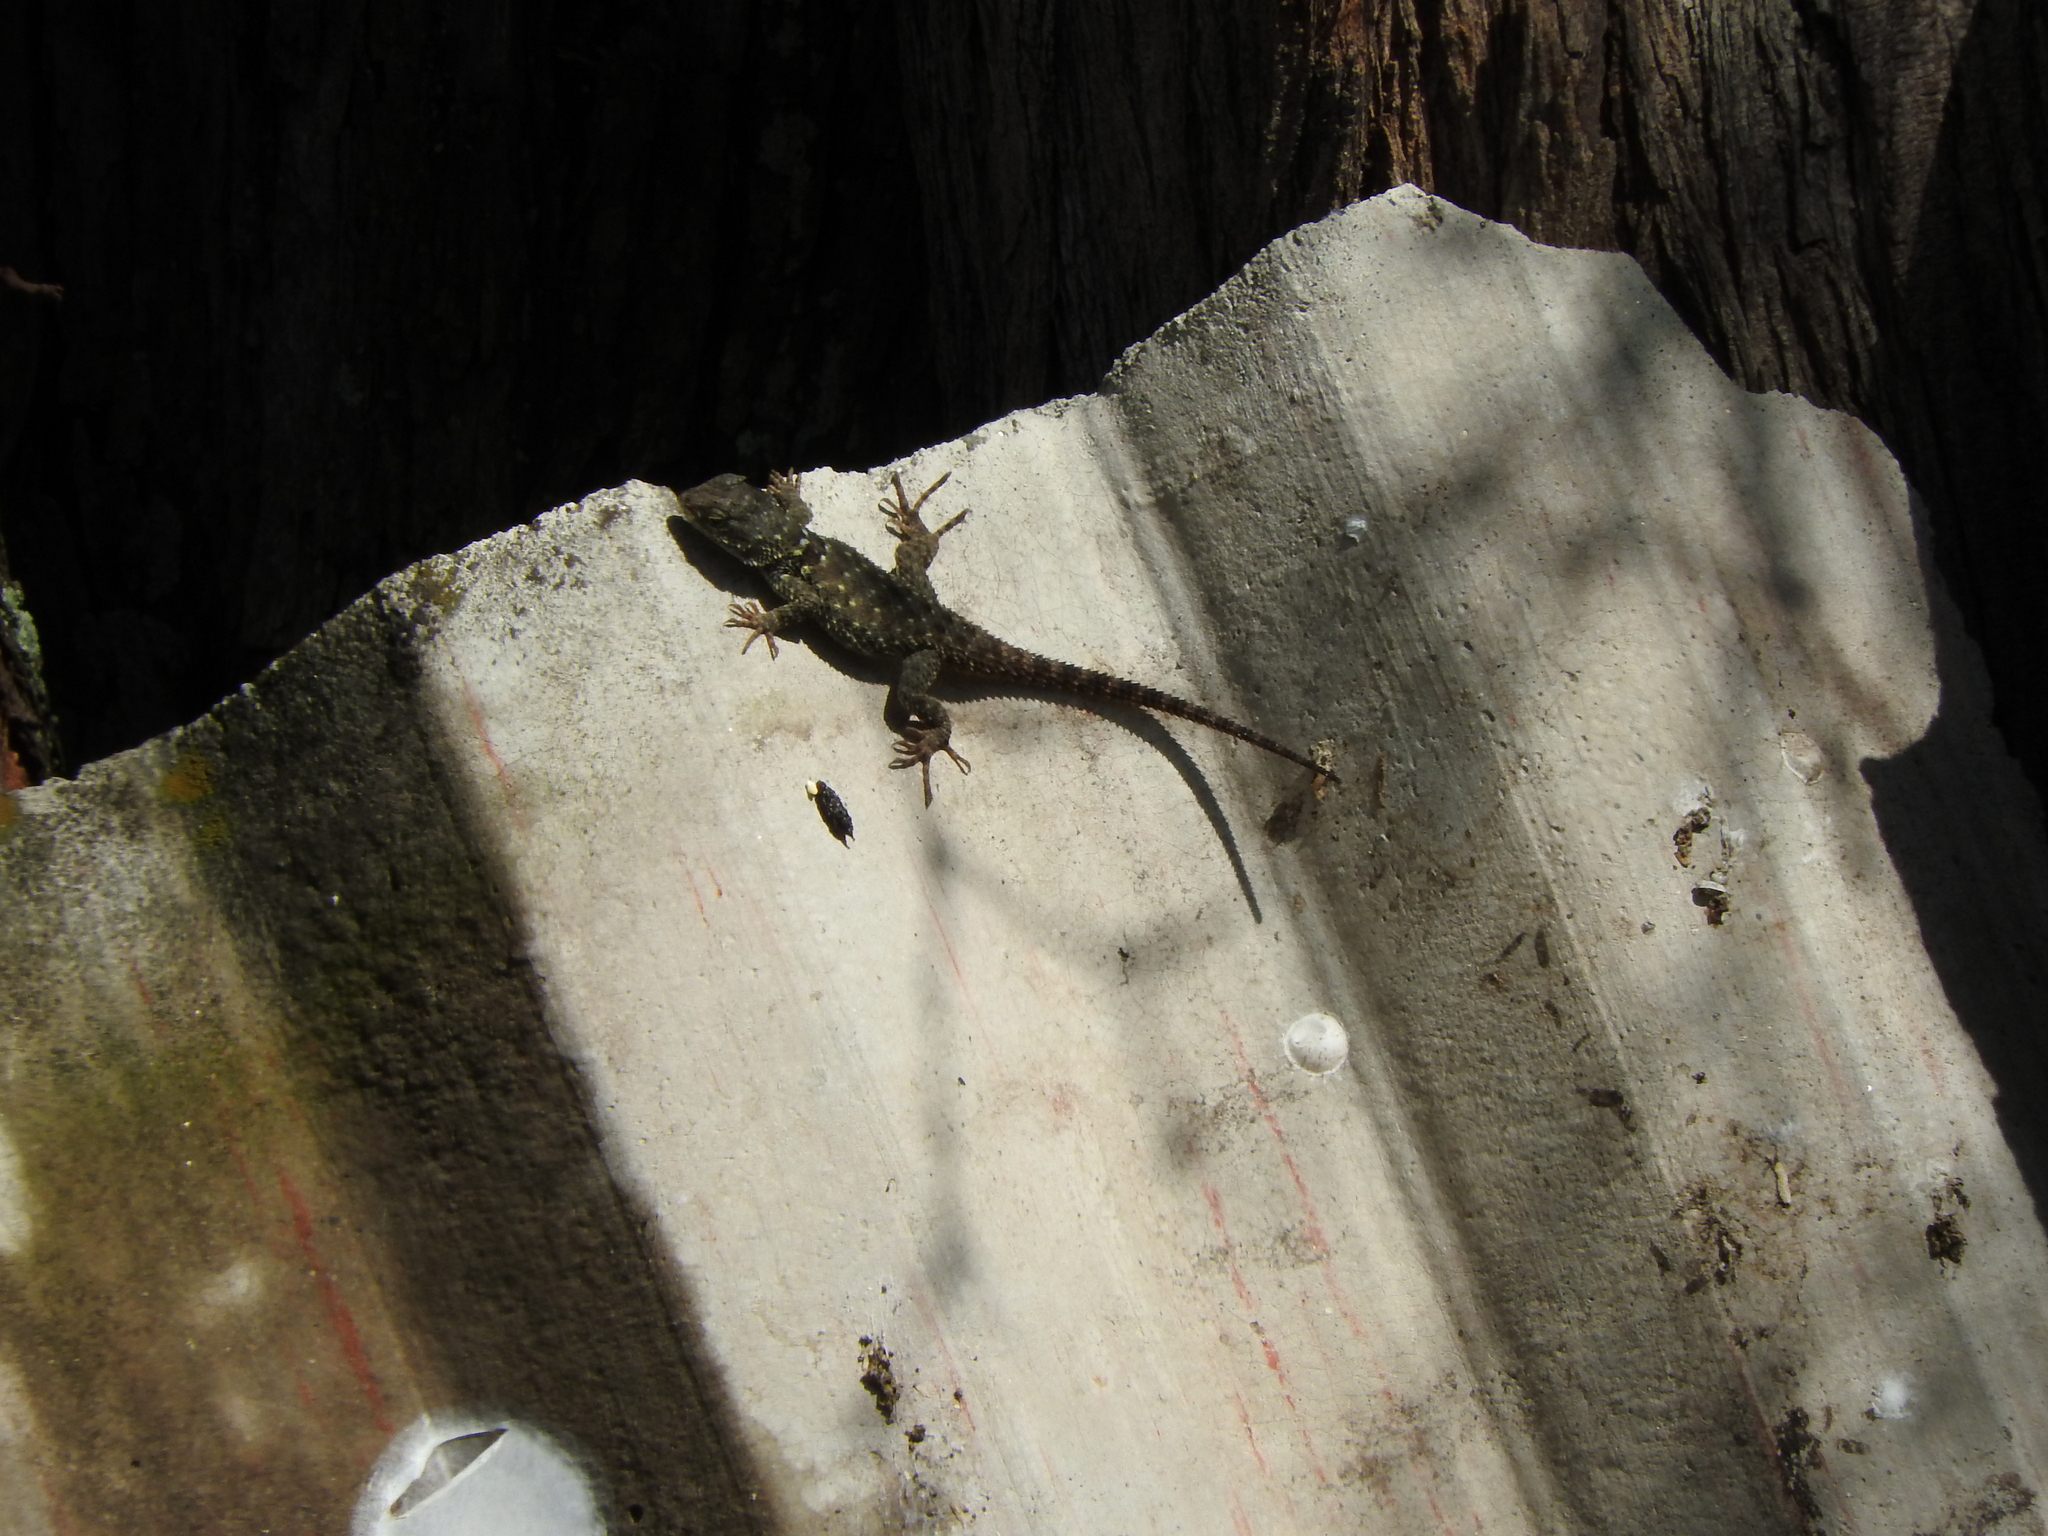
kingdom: Animalia
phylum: Chordata
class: Squamata
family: Phrynosomatidae
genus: Sceloporus
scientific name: Sceloporus torquatus
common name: Central plateau torquate lizard [melanogaster]
